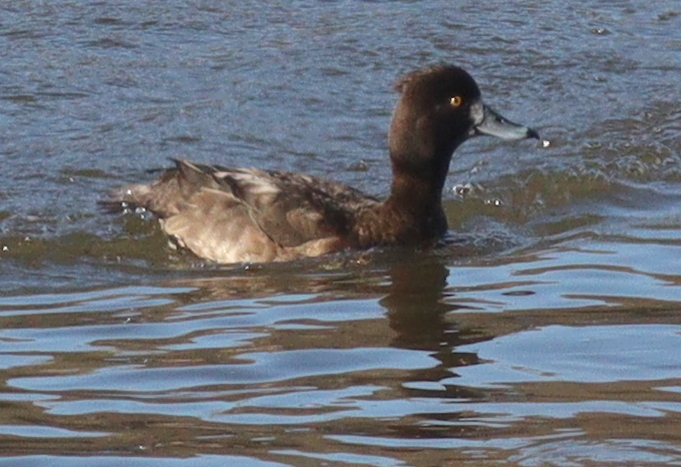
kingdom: Animalia
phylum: Chordata
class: Aves
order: Anseriformes
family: Anatidae
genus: Aythya
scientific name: Aythya fuligula
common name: Tufted duck
